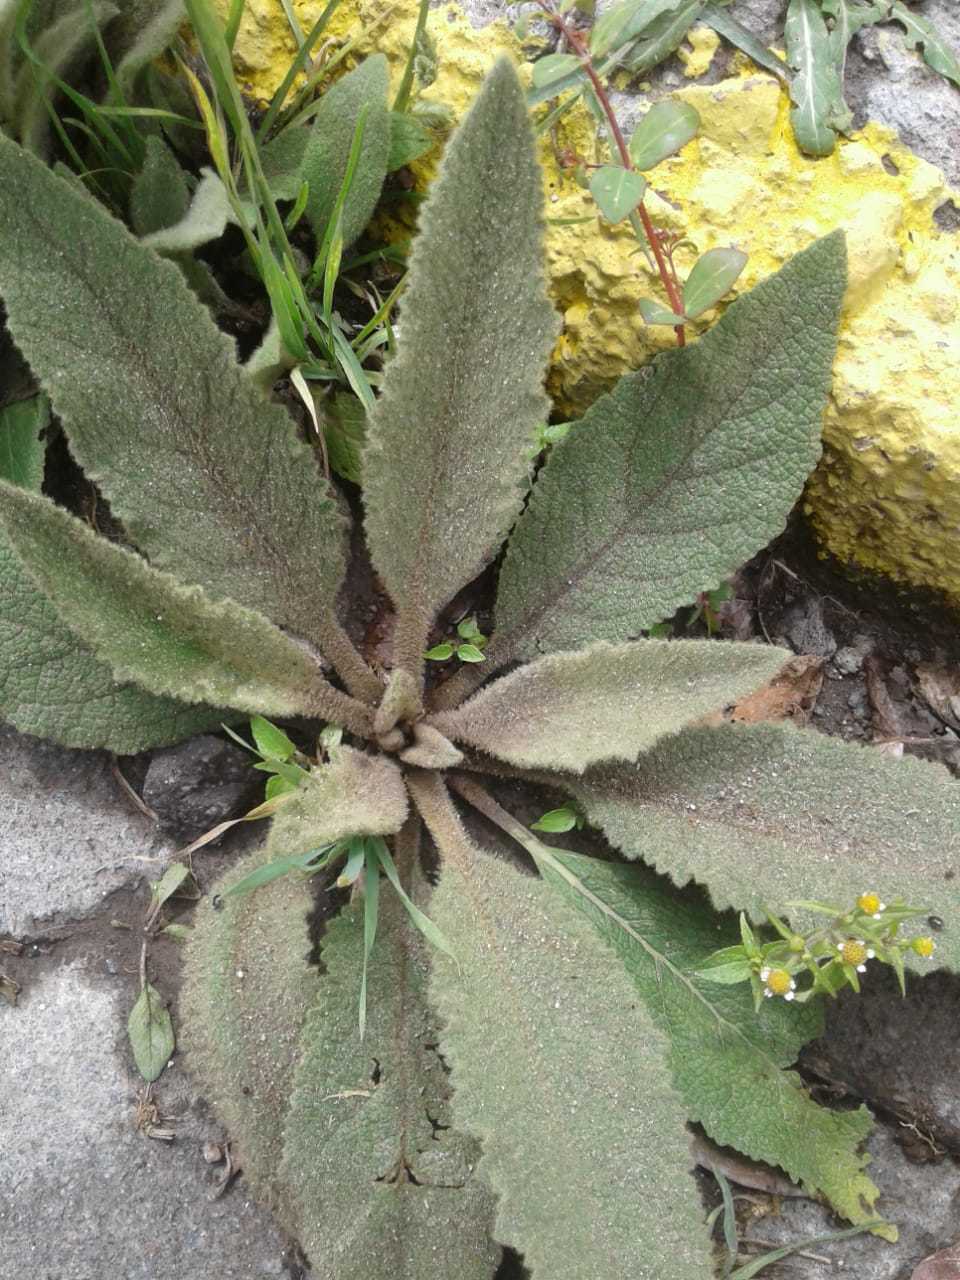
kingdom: Plantae
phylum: Tracheophyta
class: Magnoliopsida
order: Lamiales
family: Scrophulariaceae
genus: Verbascum
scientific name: Verbascum phlomoides
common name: Orange mullein
